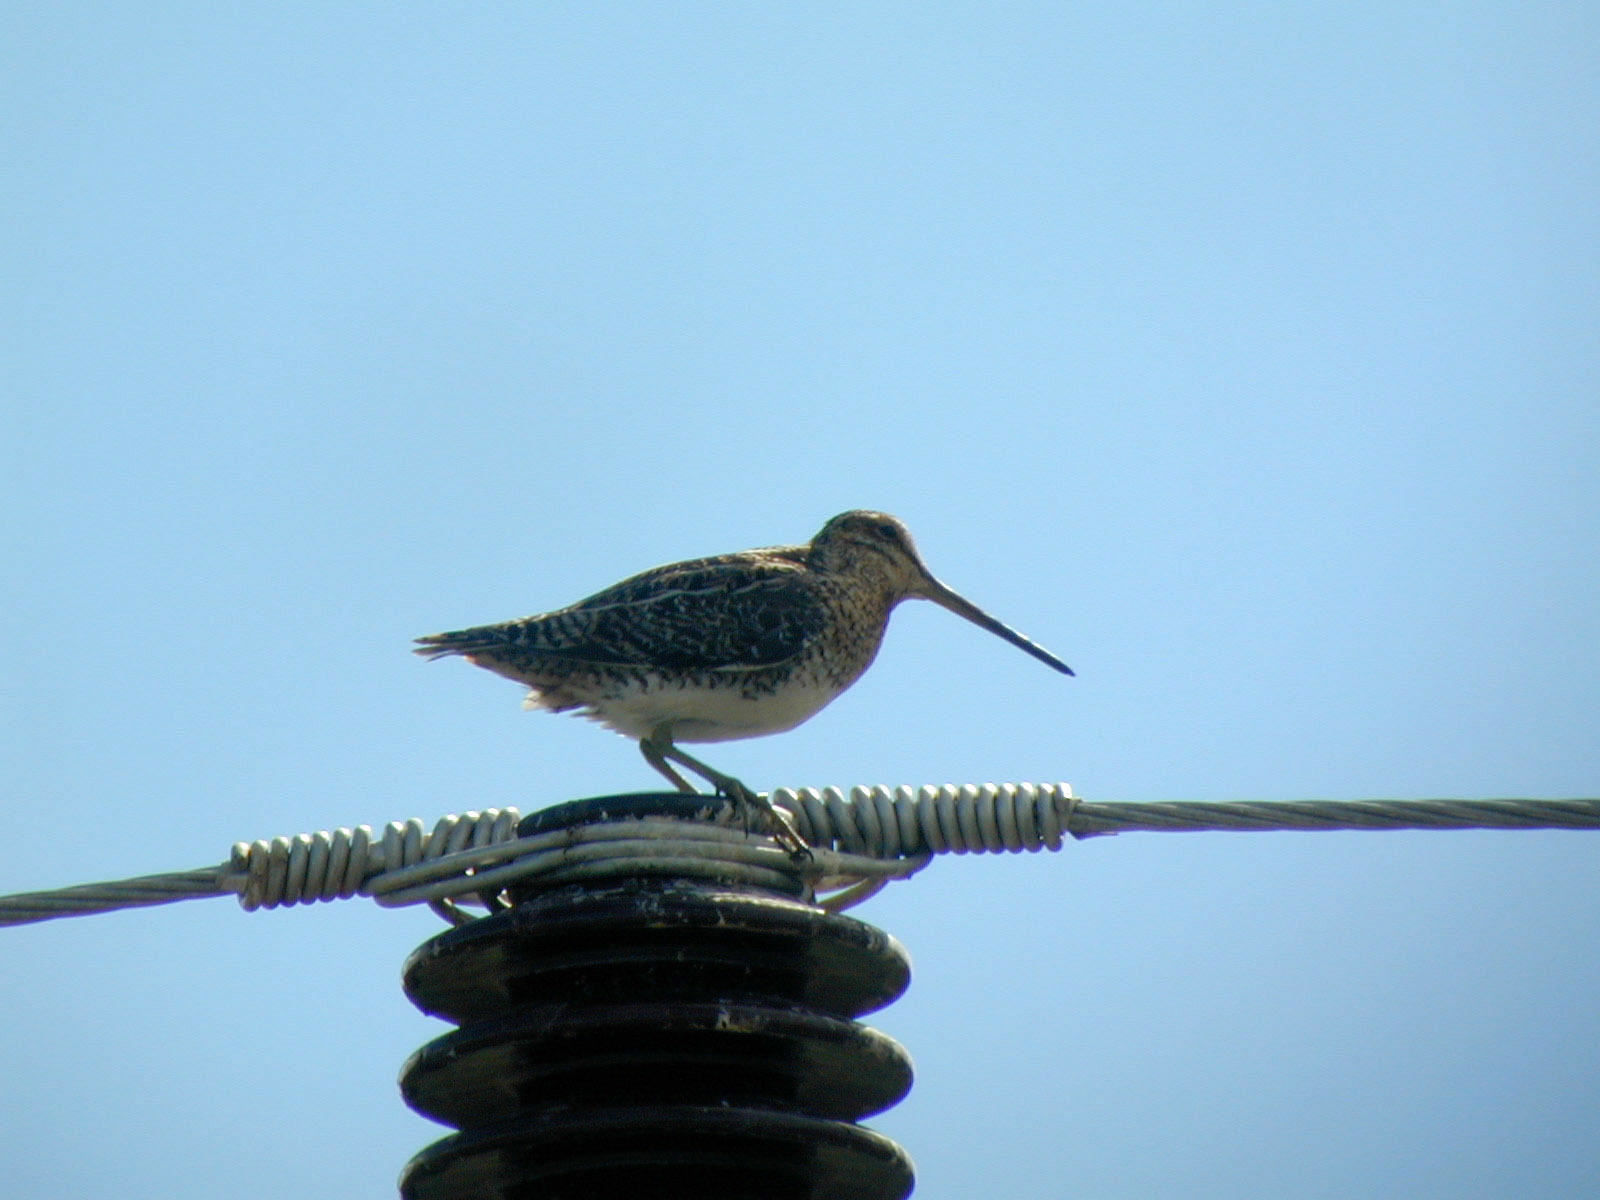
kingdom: Animalia
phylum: Chordata
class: Aves
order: Charadriiformes
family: Scolopacidae
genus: Gallinago
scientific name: Gallinago gallinago
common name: Common snipe
